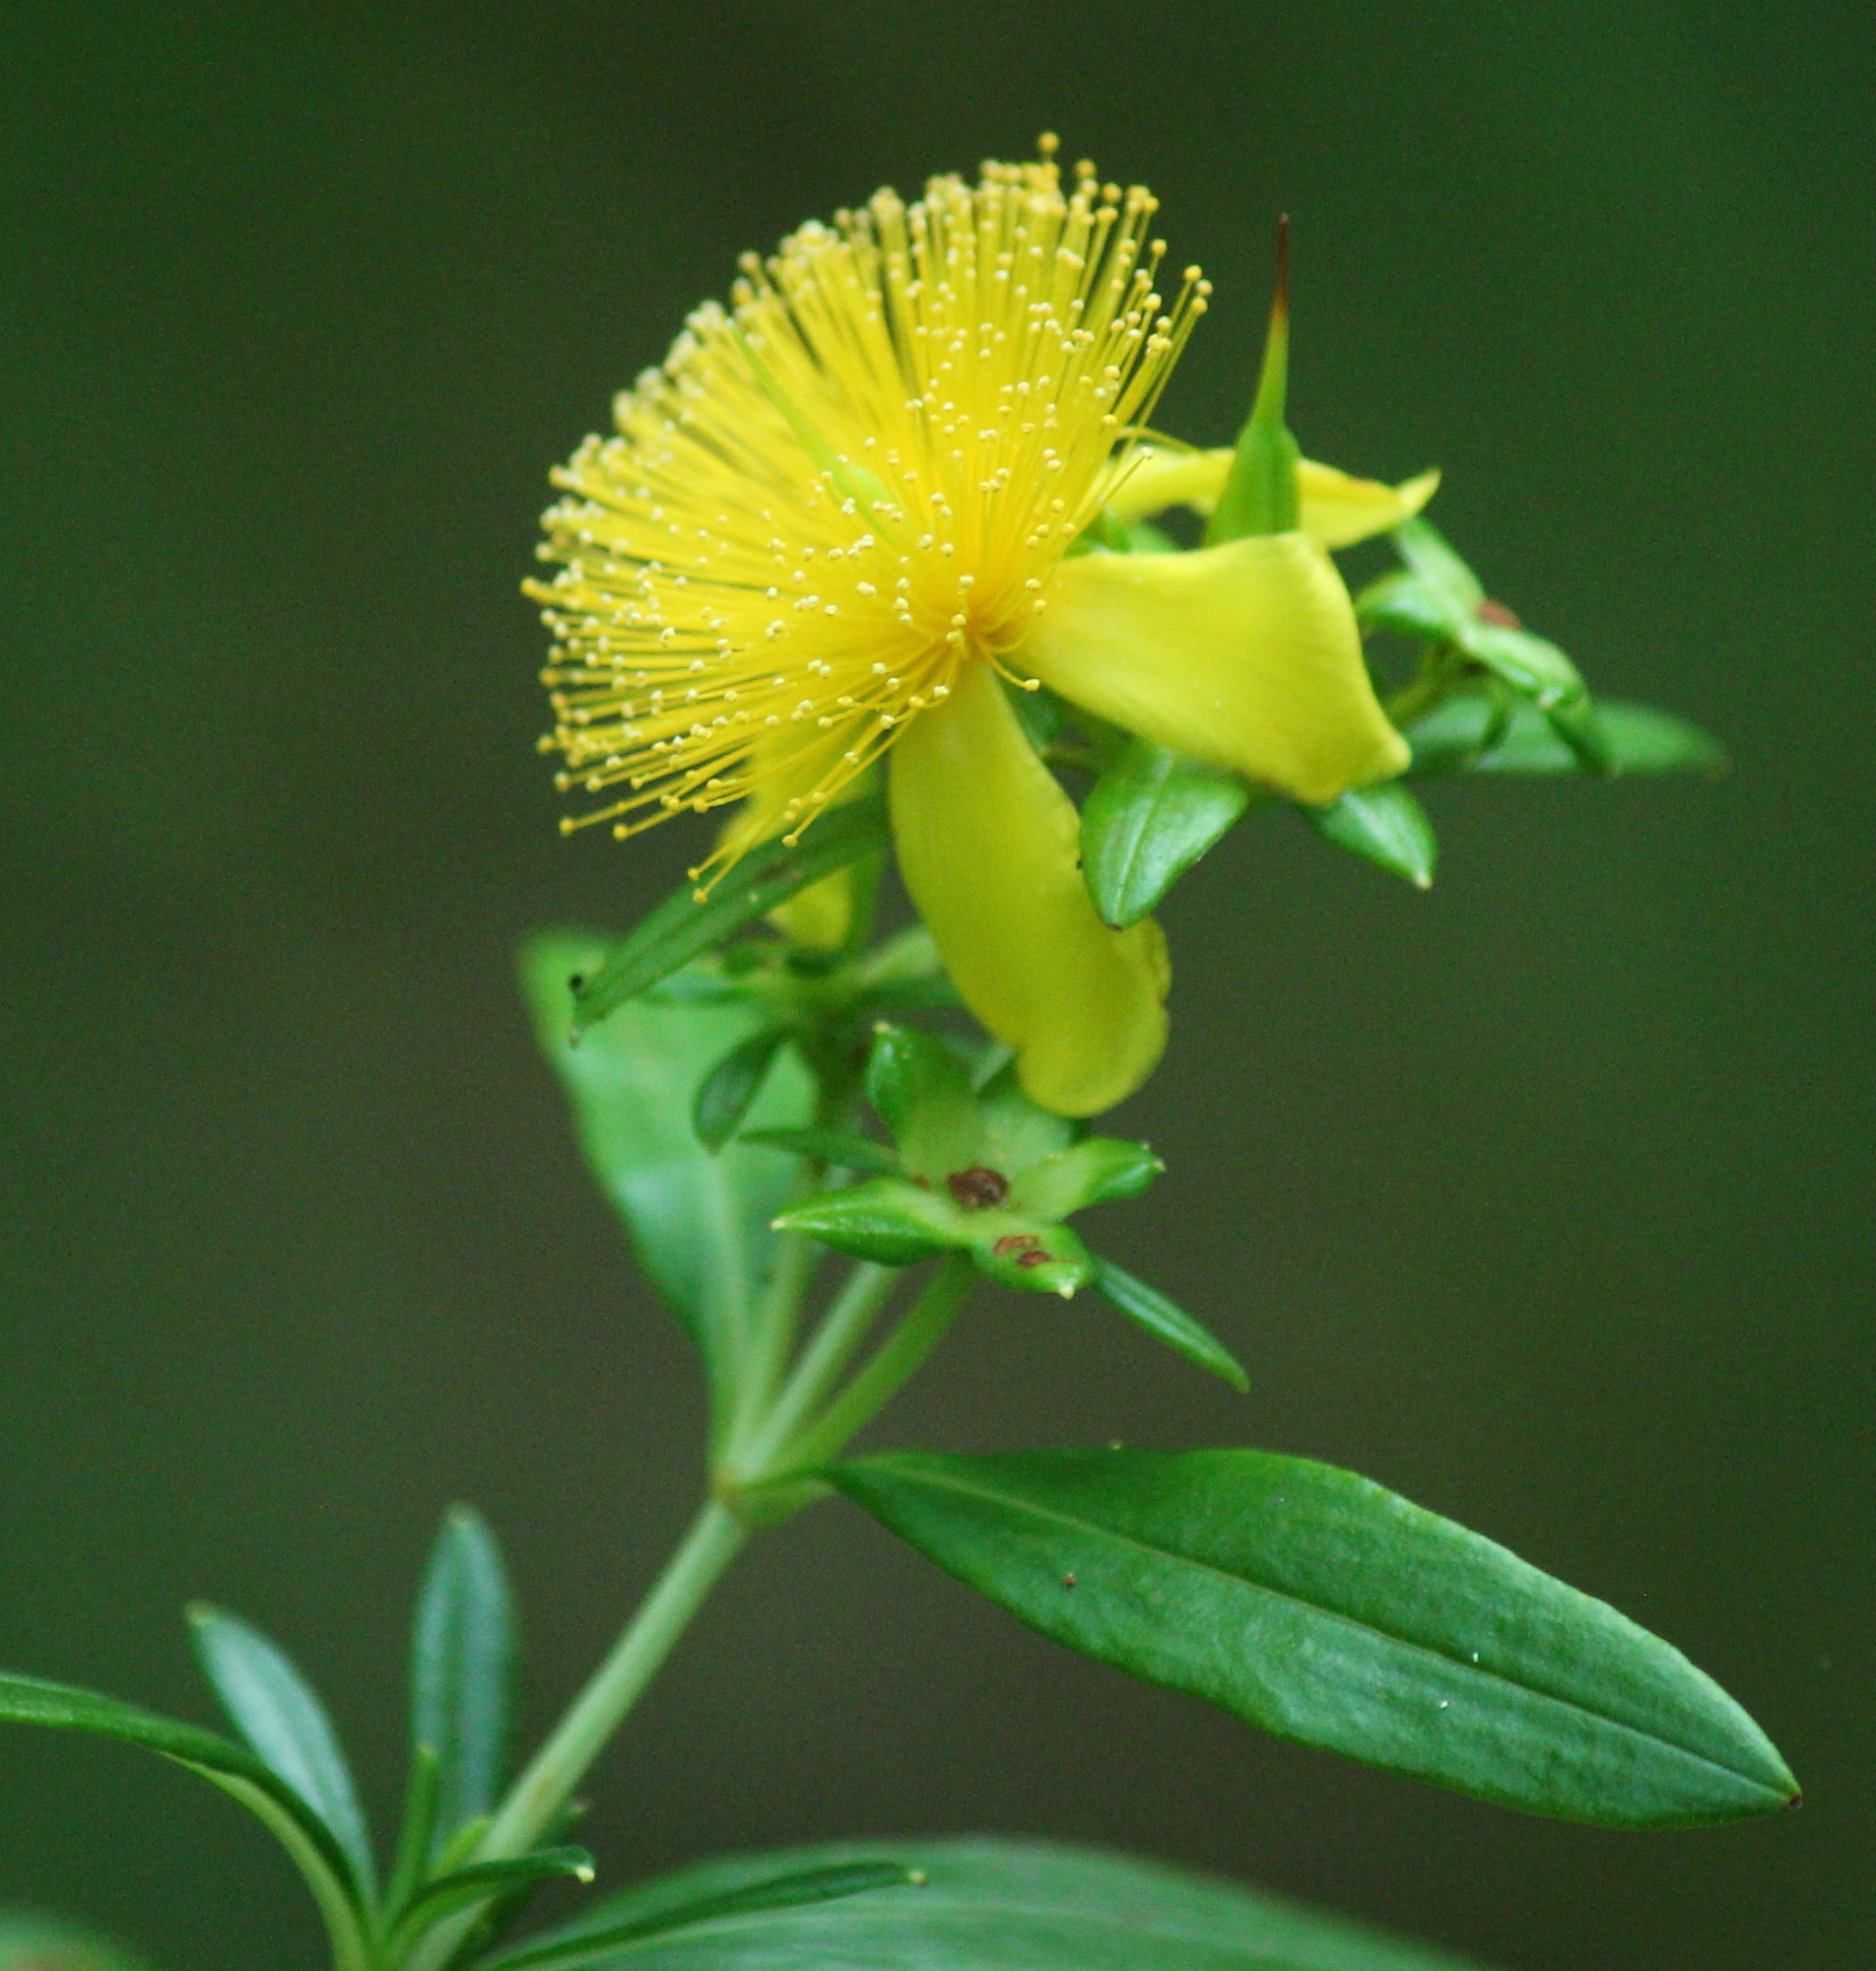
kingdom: Plantae
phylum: Tracheophyta
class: Magnoliopsida
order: Malpighiales
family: Hypericaceae
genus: Hypericum
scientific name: Hypericum prolificum
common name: Shrubby st. john's-wort
